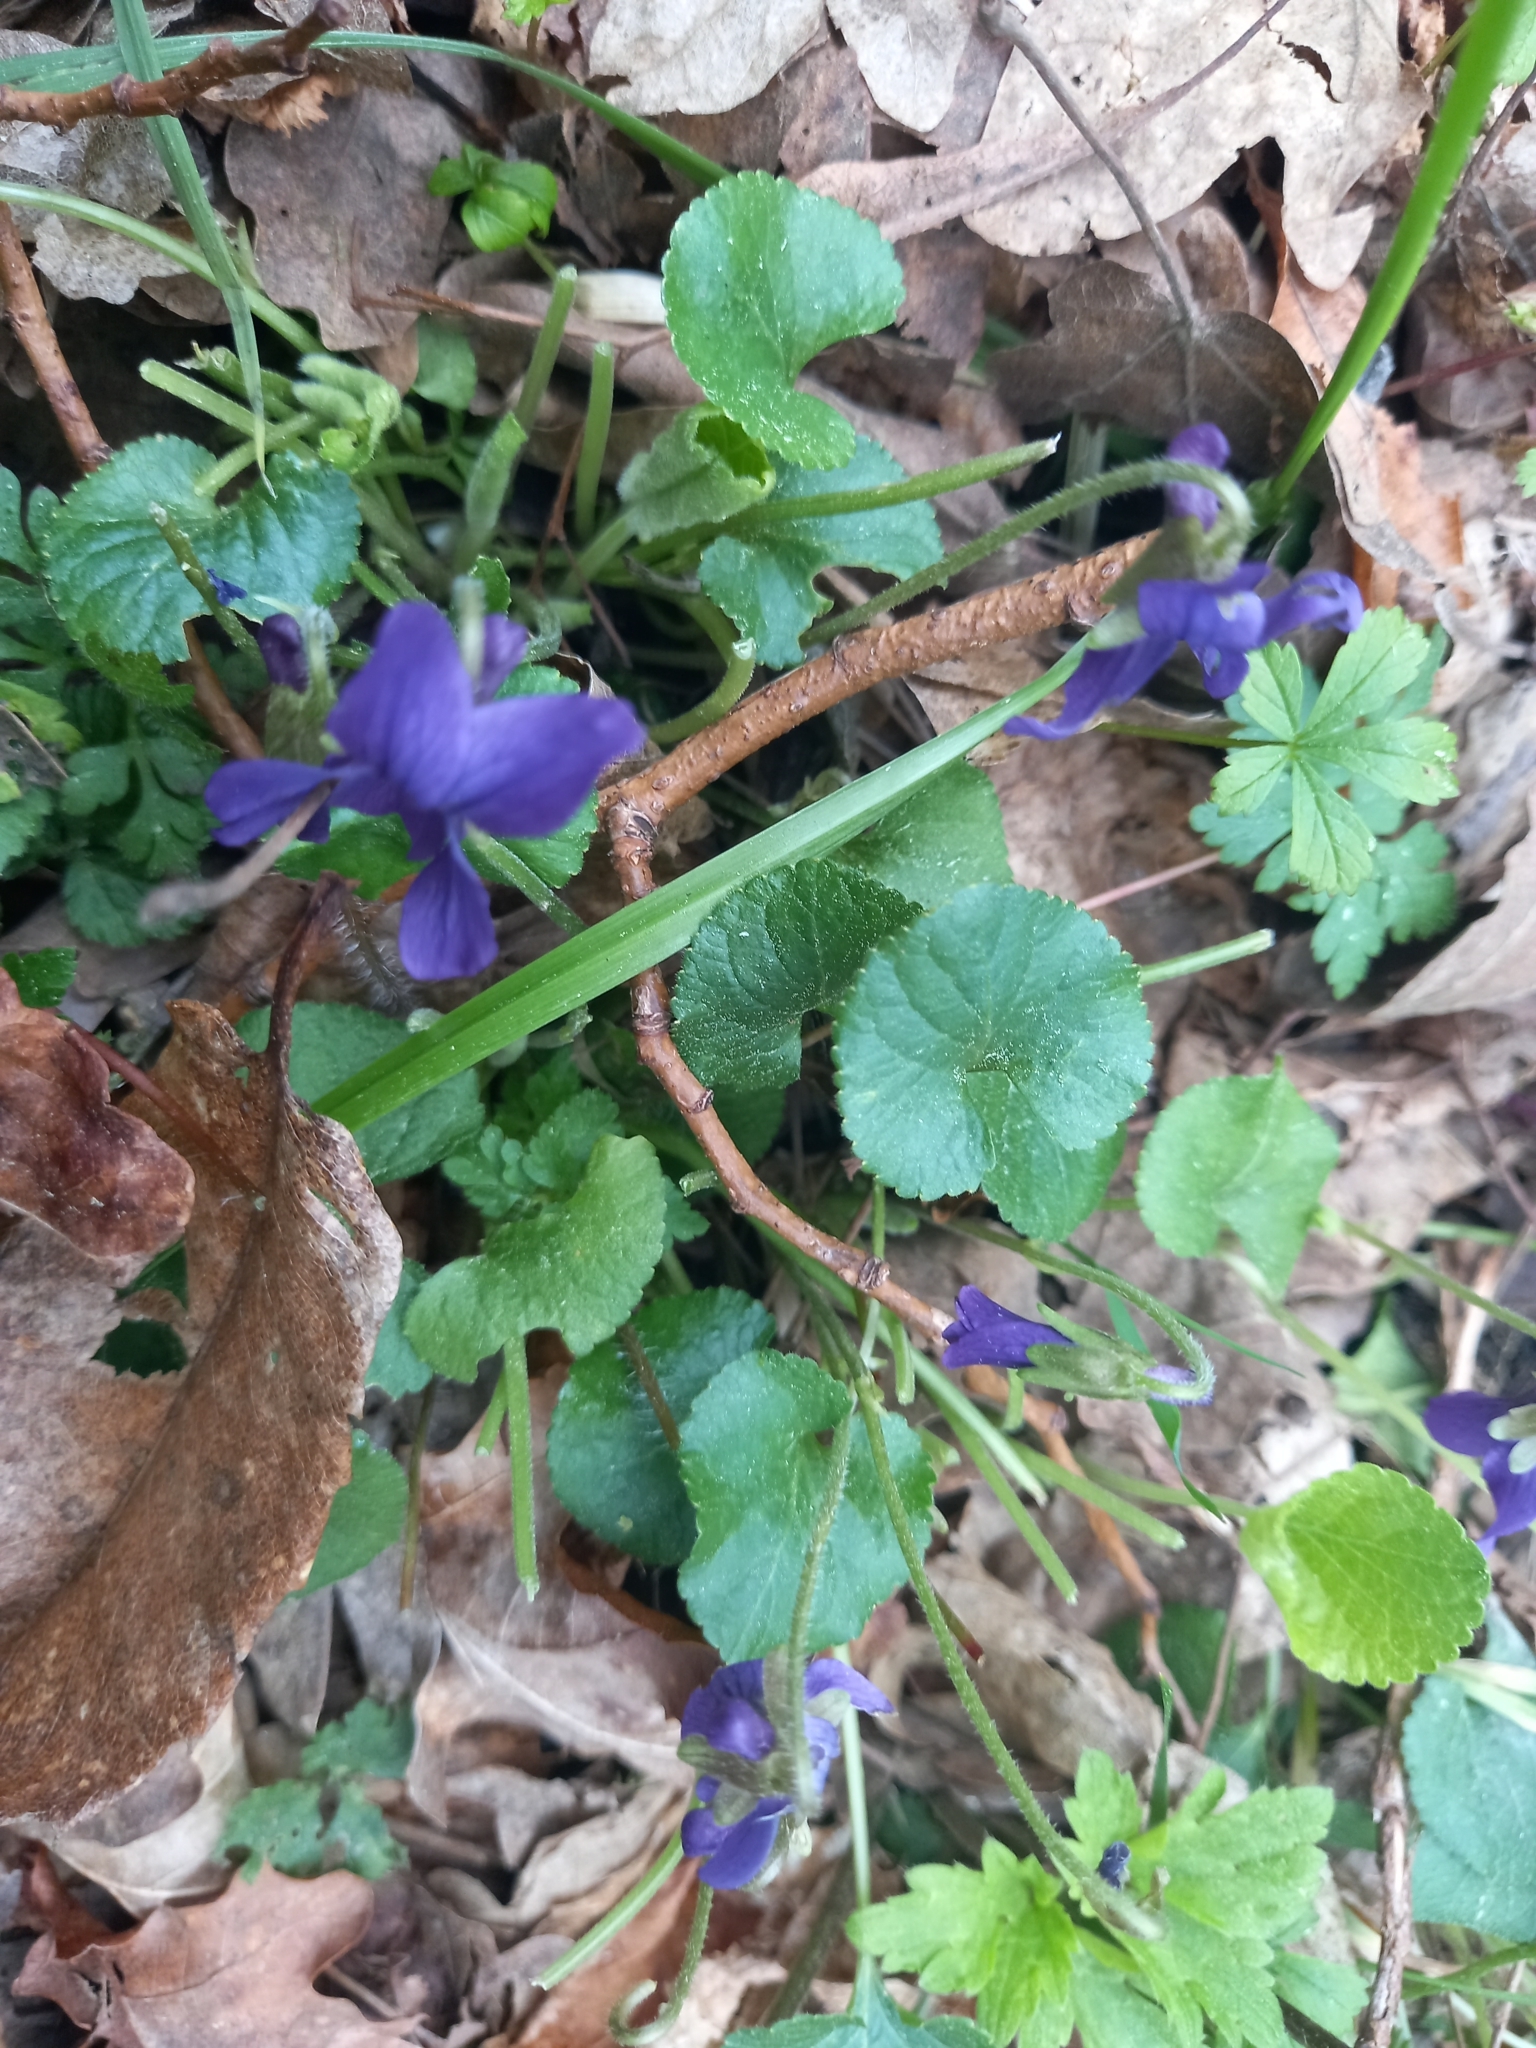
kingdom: Plantae
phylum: Tracheophyta
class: Magnoliopsida
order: Malpighiales
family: Violaceae
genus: Viola
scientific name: Viola odorata
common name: Sweet violet
